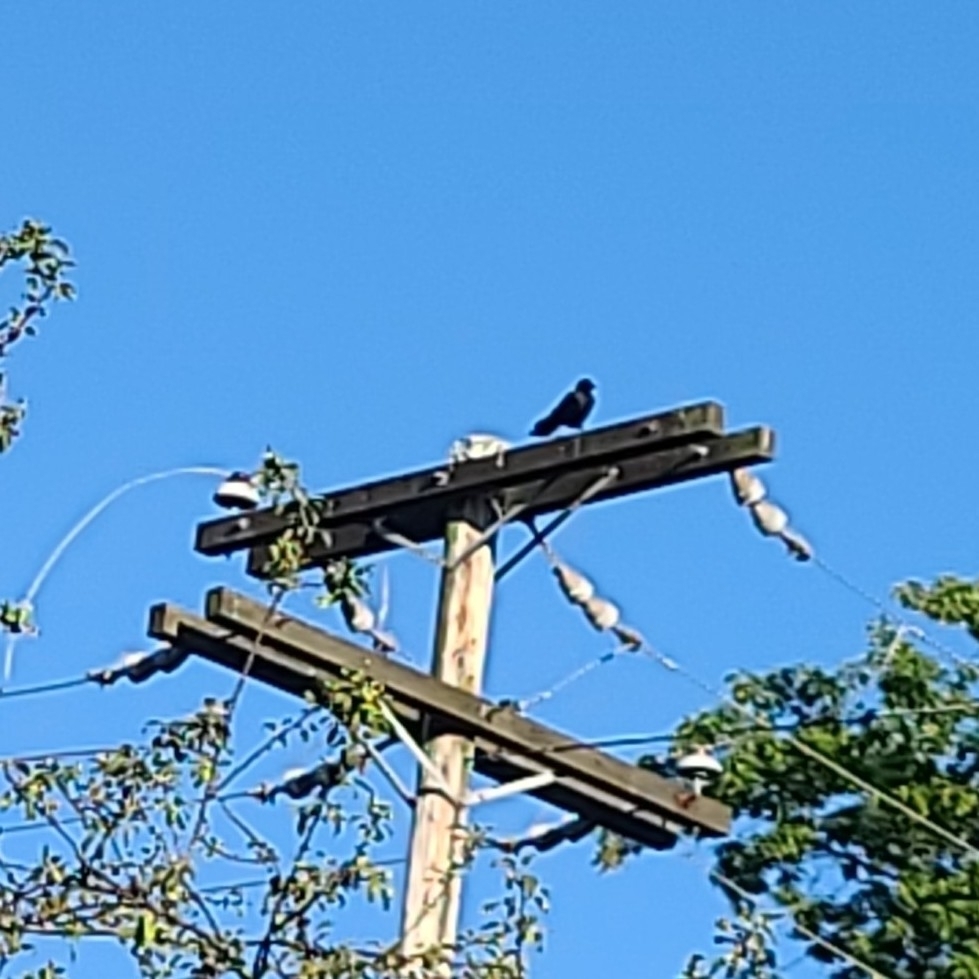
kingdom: Animalia
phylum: Chordata
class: Aves
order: Passeriformes
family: Corvidae
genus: Corvus
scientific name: Corvus brachyrhynchos
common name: American crow
